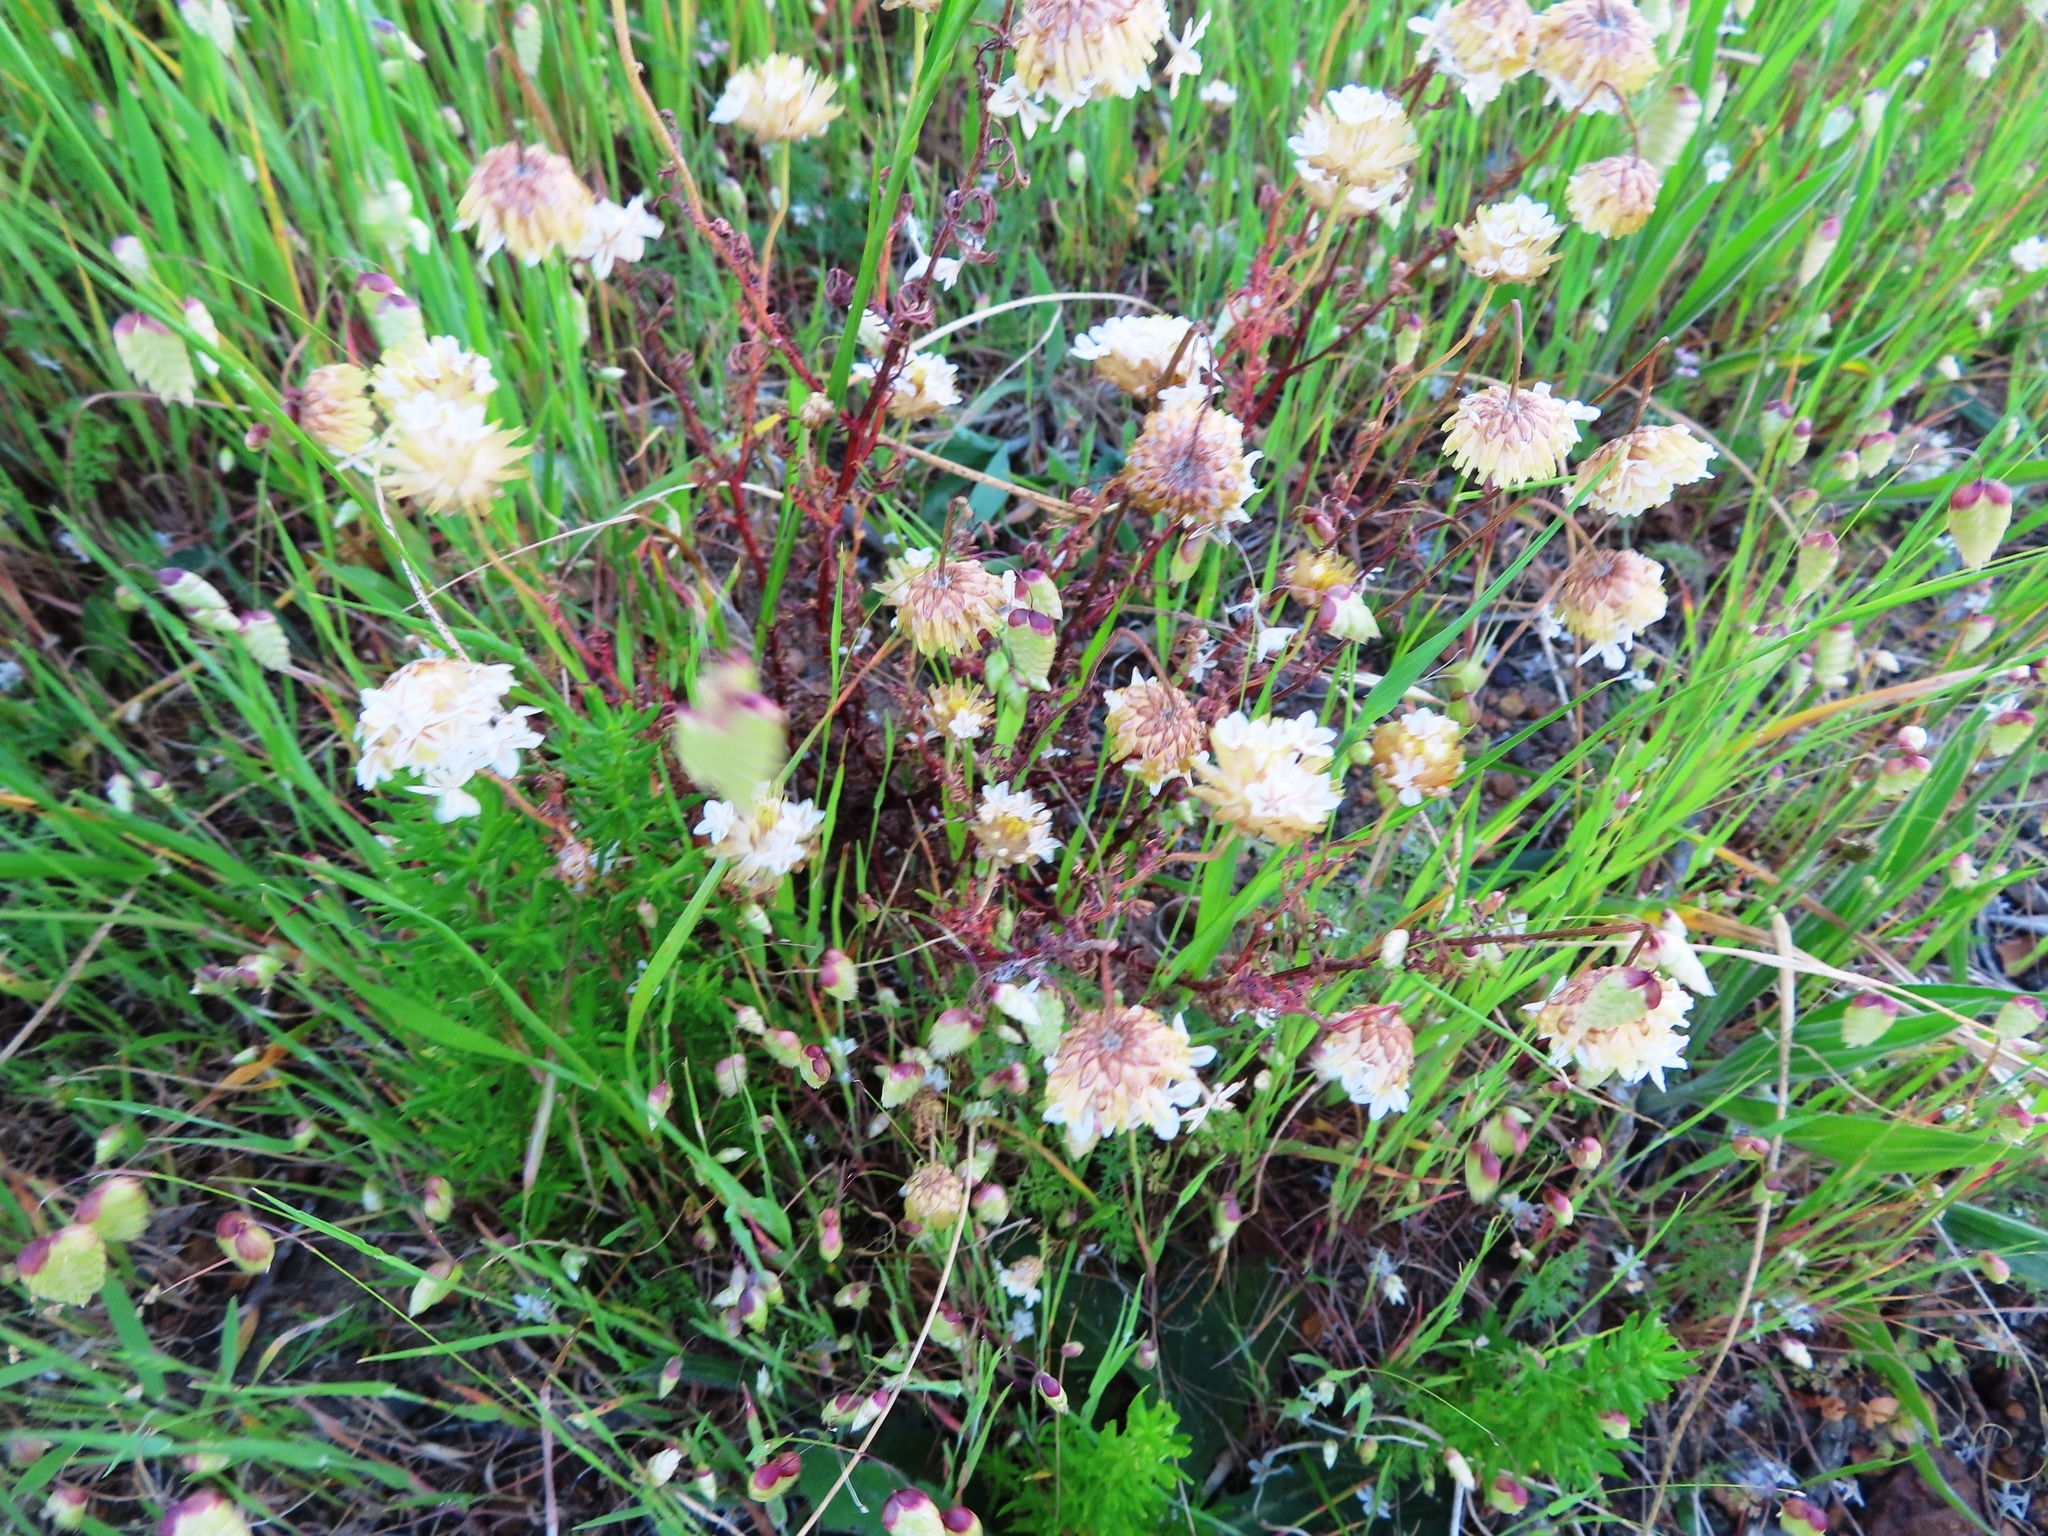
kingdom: Plantae
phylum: Tracheophyta
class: Magnoliopsida
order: Asterales
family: Asteraceae
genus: Ursinia
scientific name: Ursinia anthemoides
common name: Ursinia
